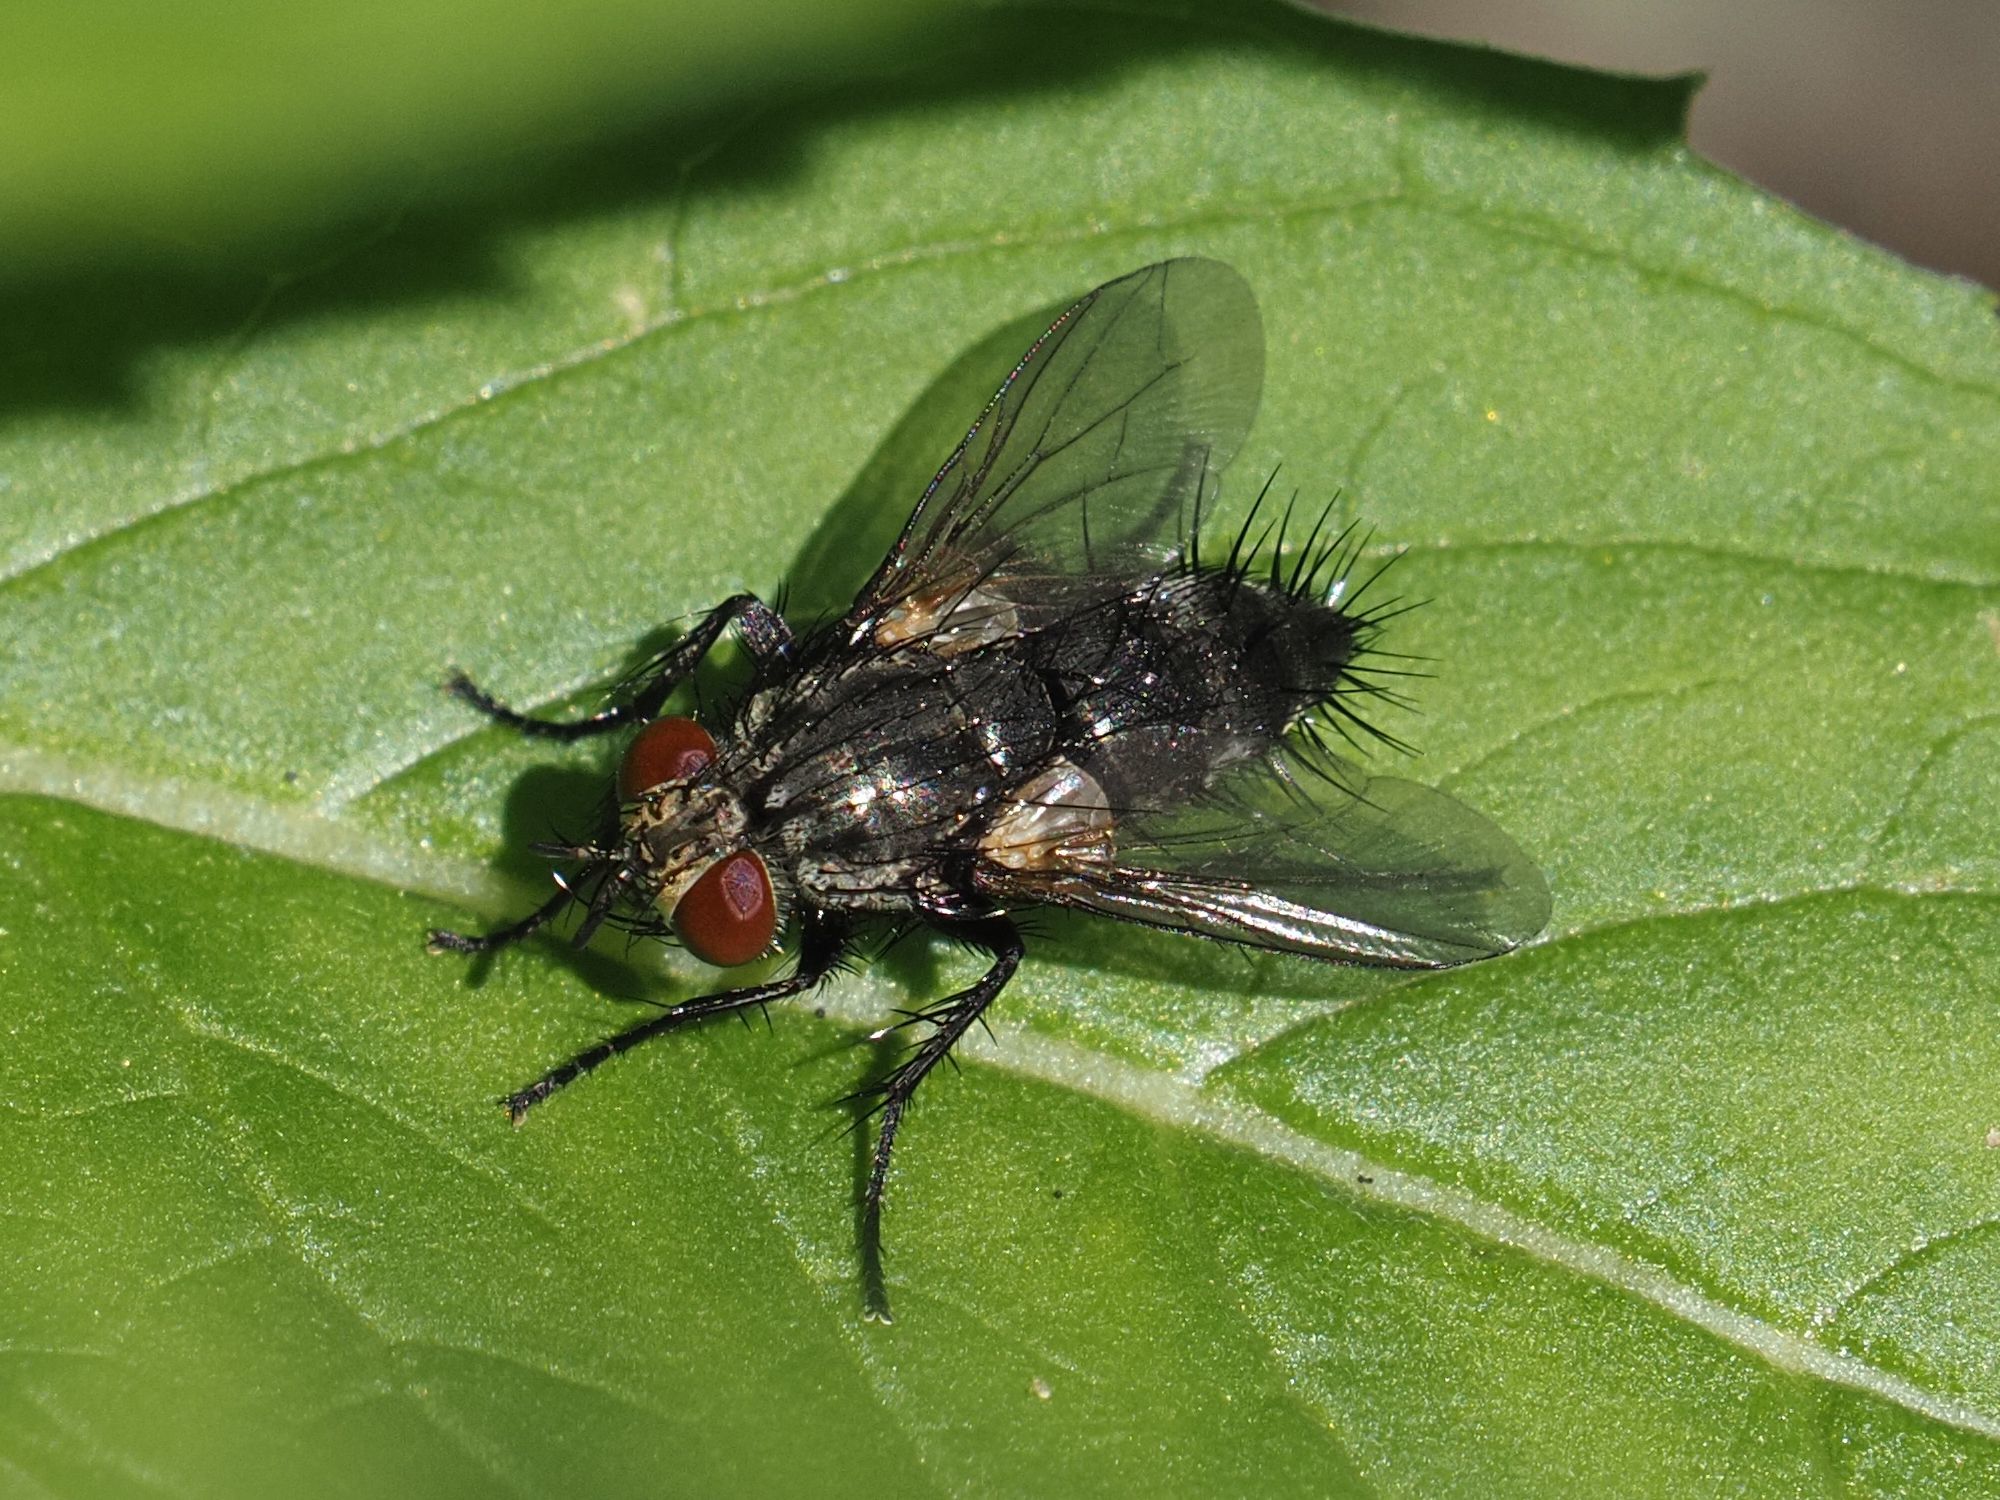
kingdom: Animalia
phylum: Arthropoda
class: Insecta
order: Diptera
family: Tachinidae
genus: Voria
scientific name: Voria ruralis
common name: Parasitic fly
